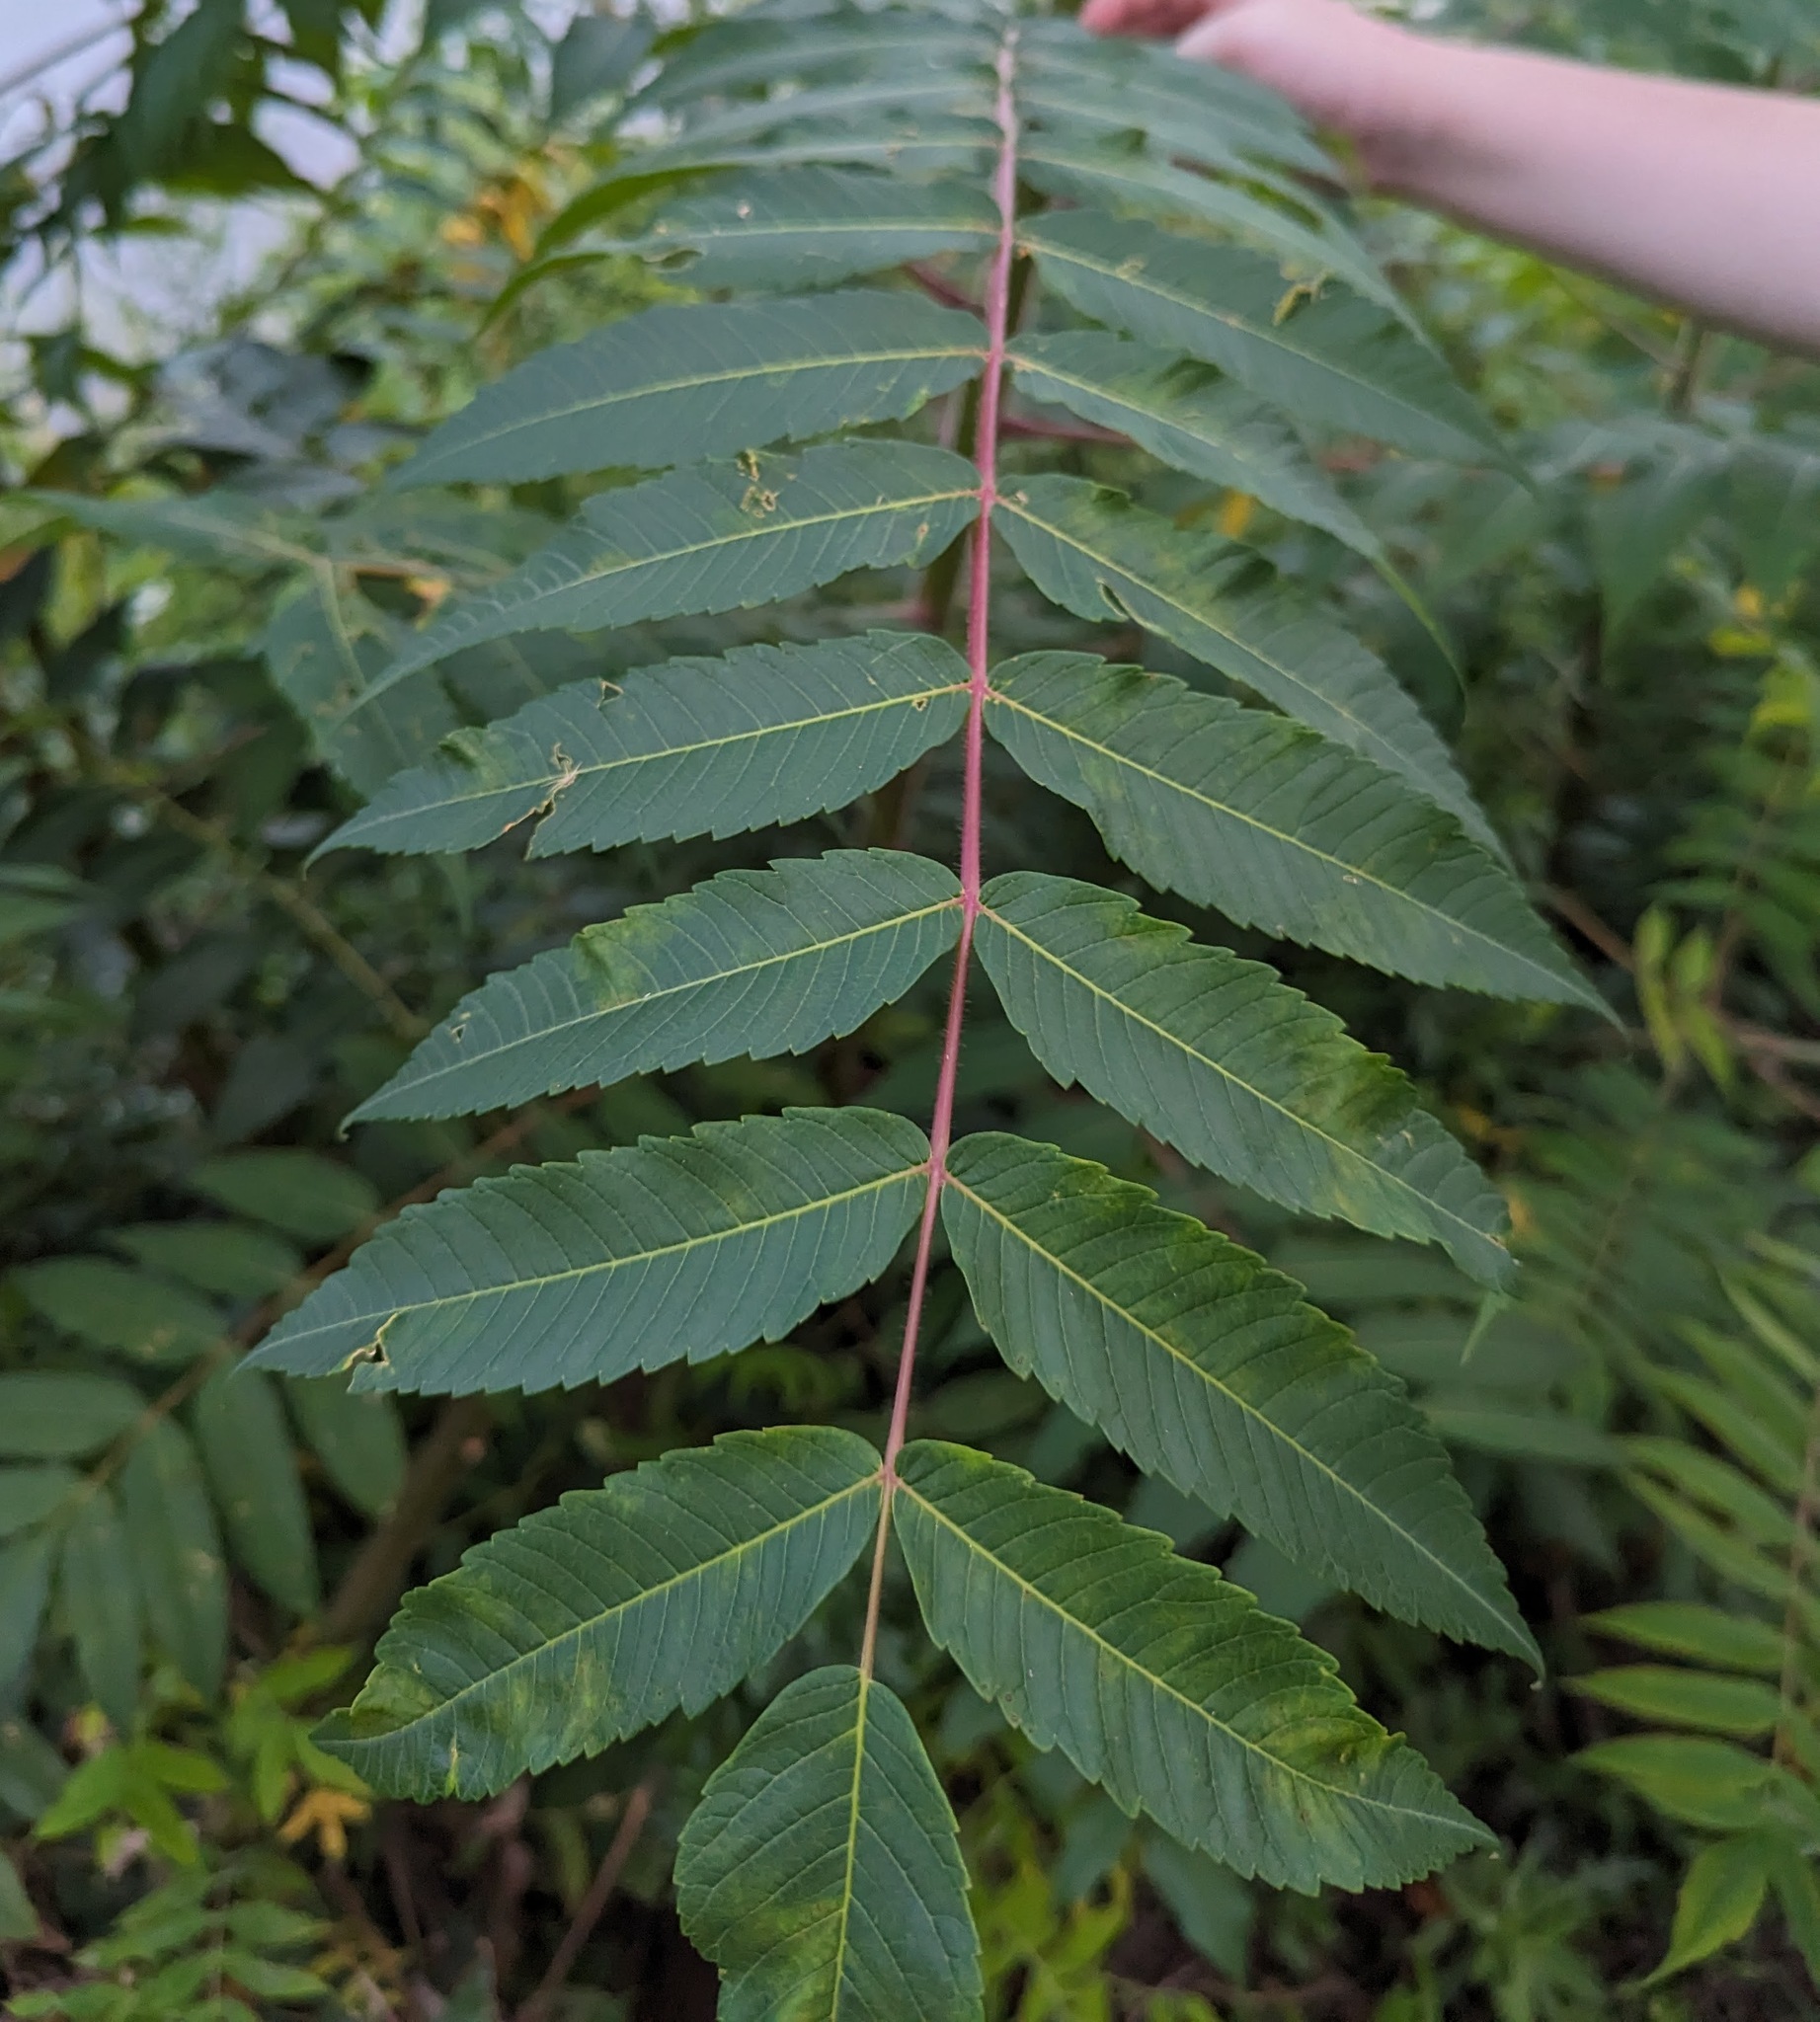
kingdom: Plantae
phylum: Tracheophyta
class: Magnoliopsida
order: Sapindales
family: Anacardiaceae
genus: Rhus
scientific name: Rhus typhina
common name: Staghorn sumac
